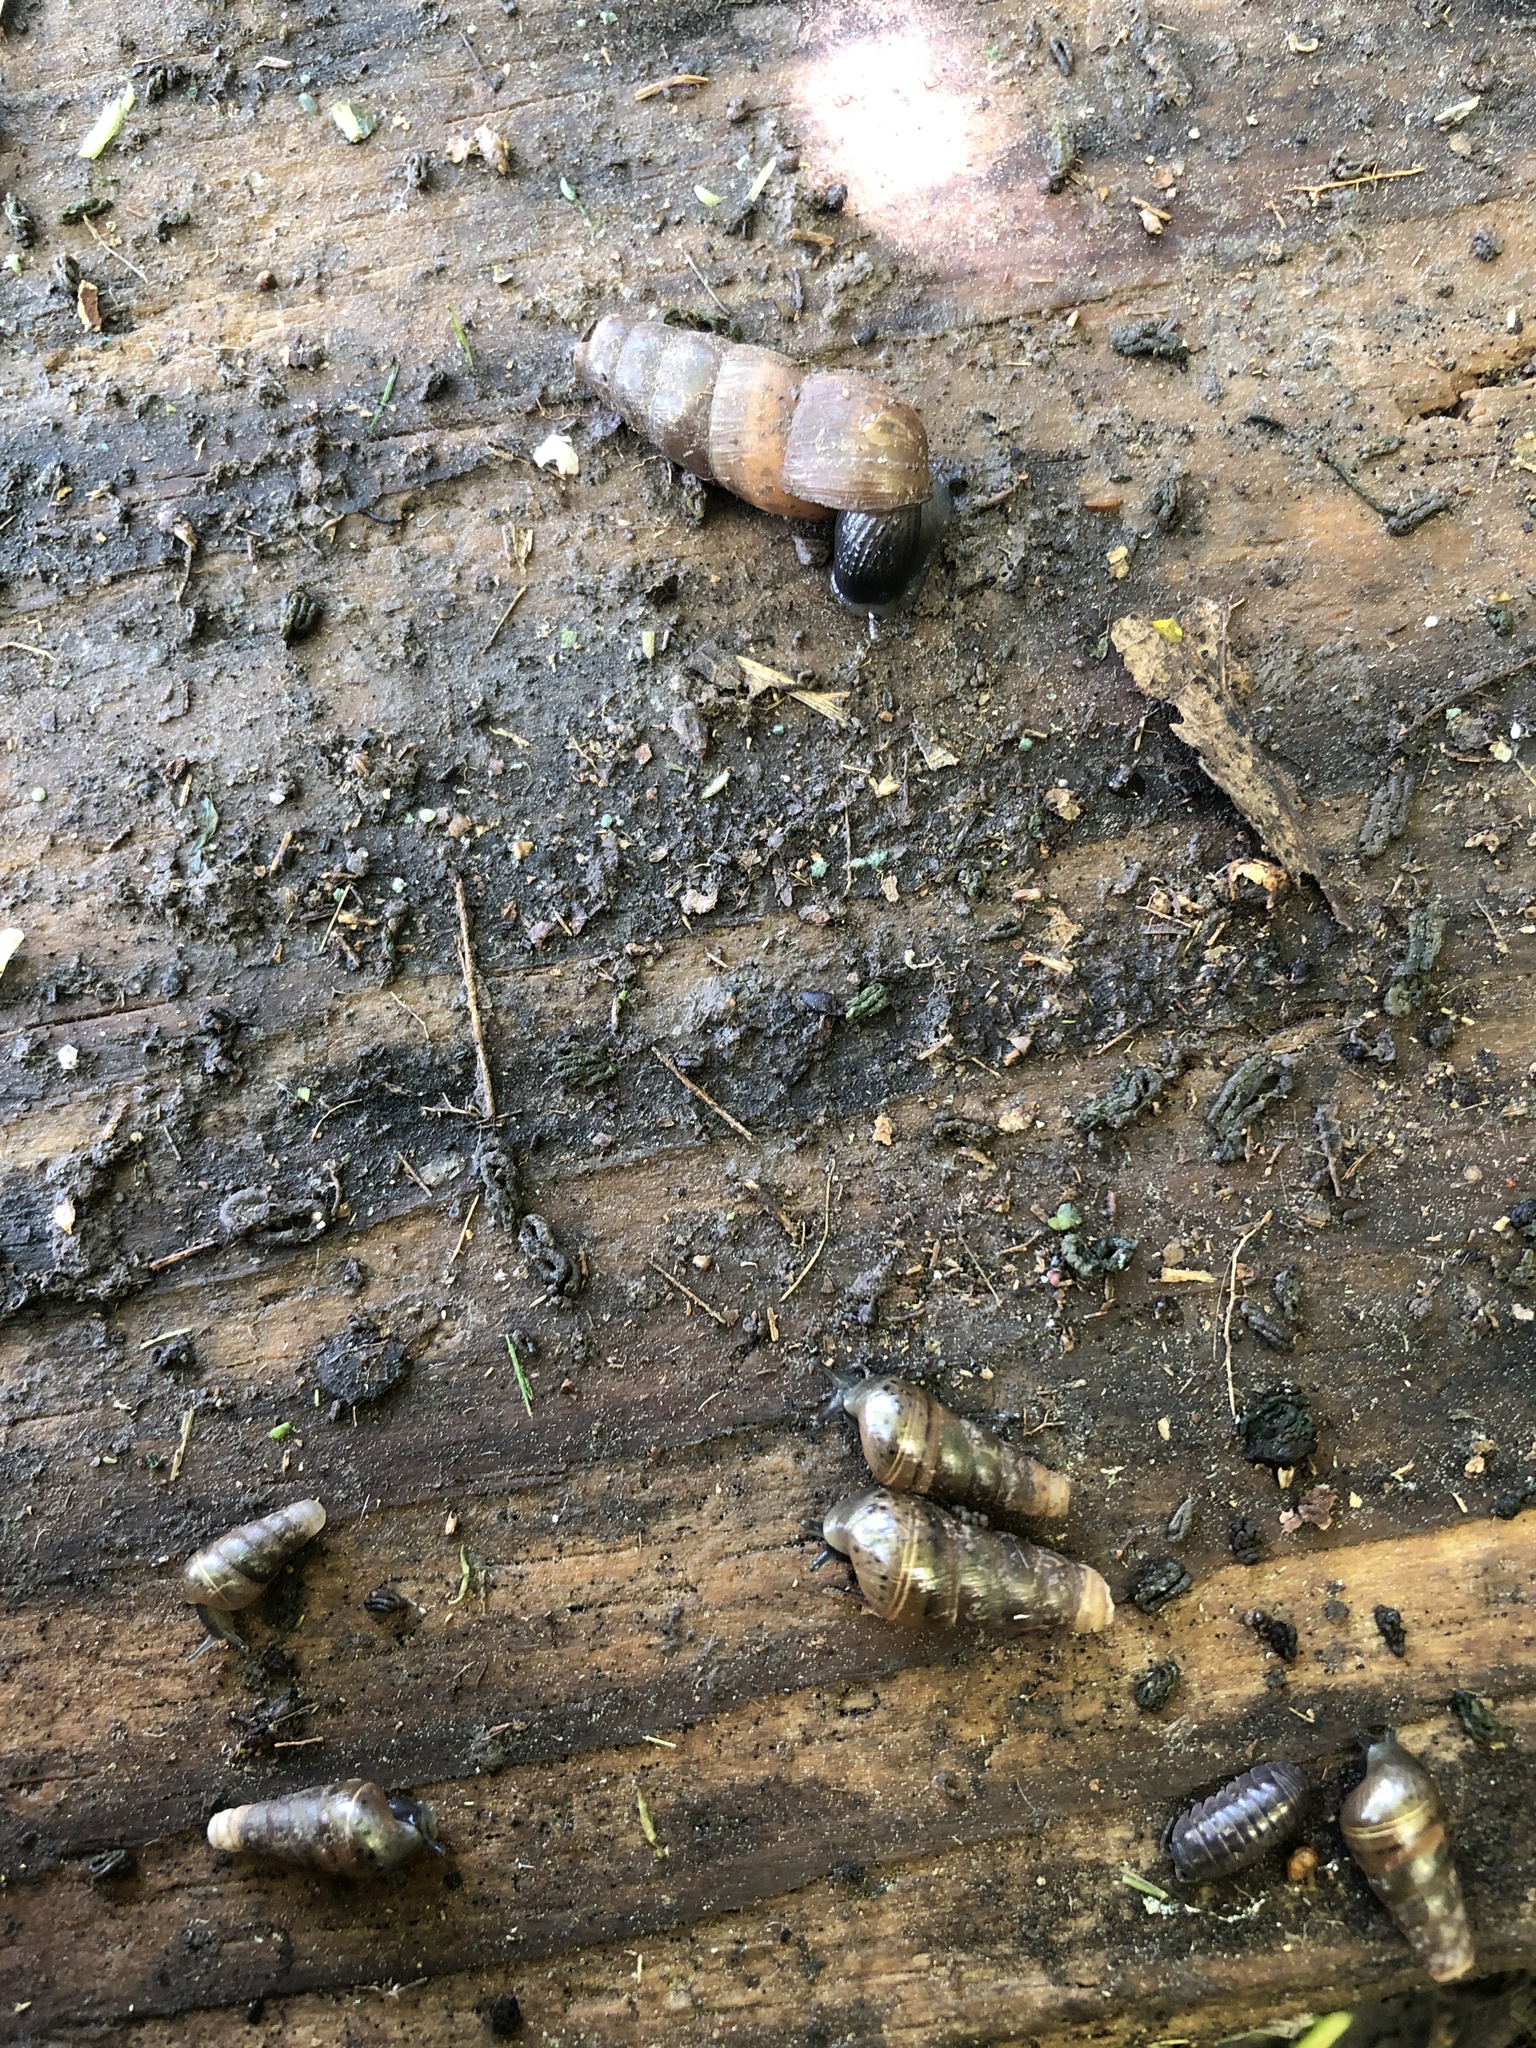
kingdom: Animalia
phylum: Mollusca
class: Gastropoda
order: Stylommatophora
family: Achatinidae
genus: Rumina
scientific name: Rumina decollata
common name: Decollate snail
